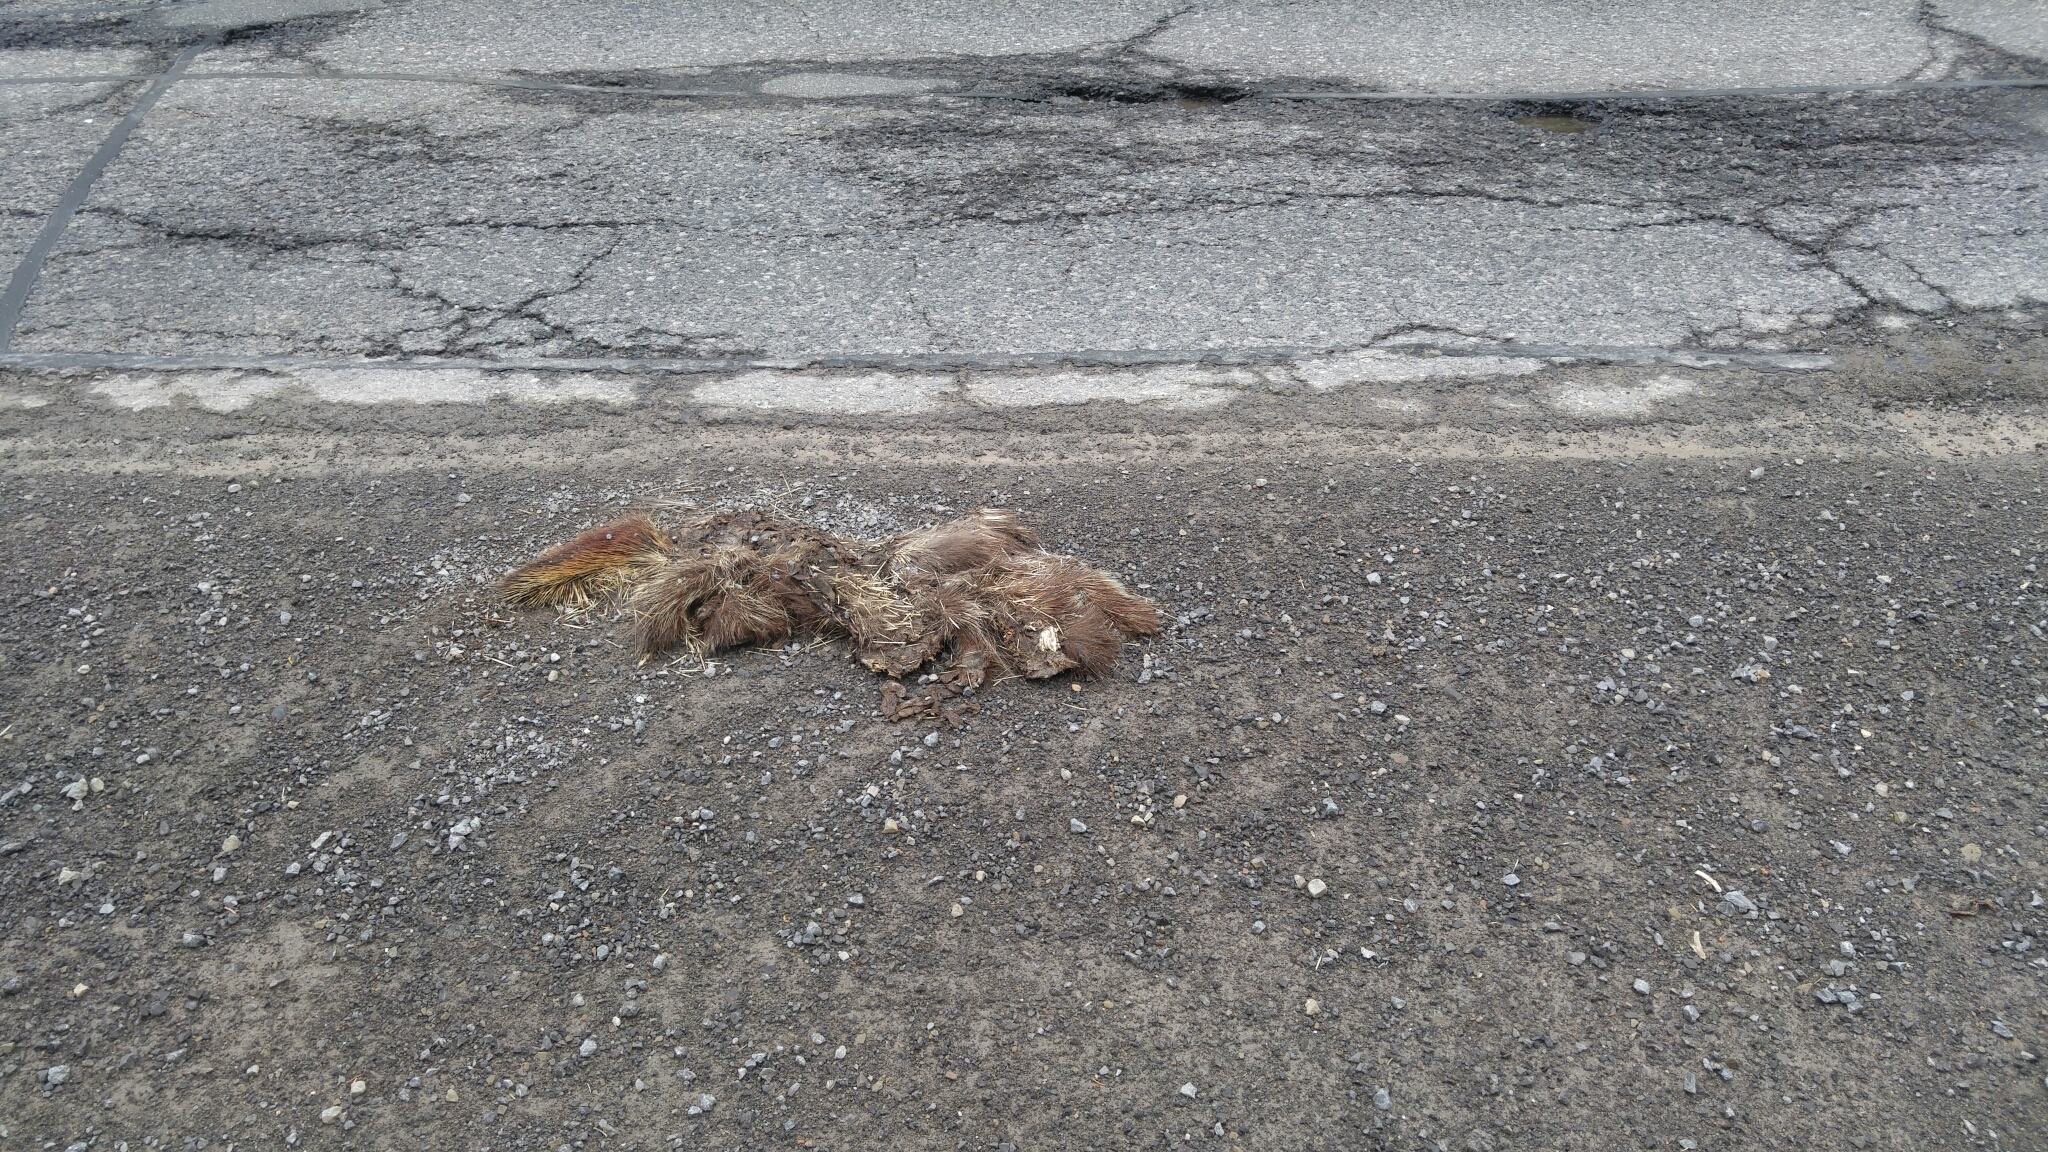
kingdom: Animalia
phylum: Chordata
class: Mammalia
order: Rodentia
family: Erethizontidae
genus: Erethizon
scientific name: Erethizon dorsatus
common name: North american porcupine
